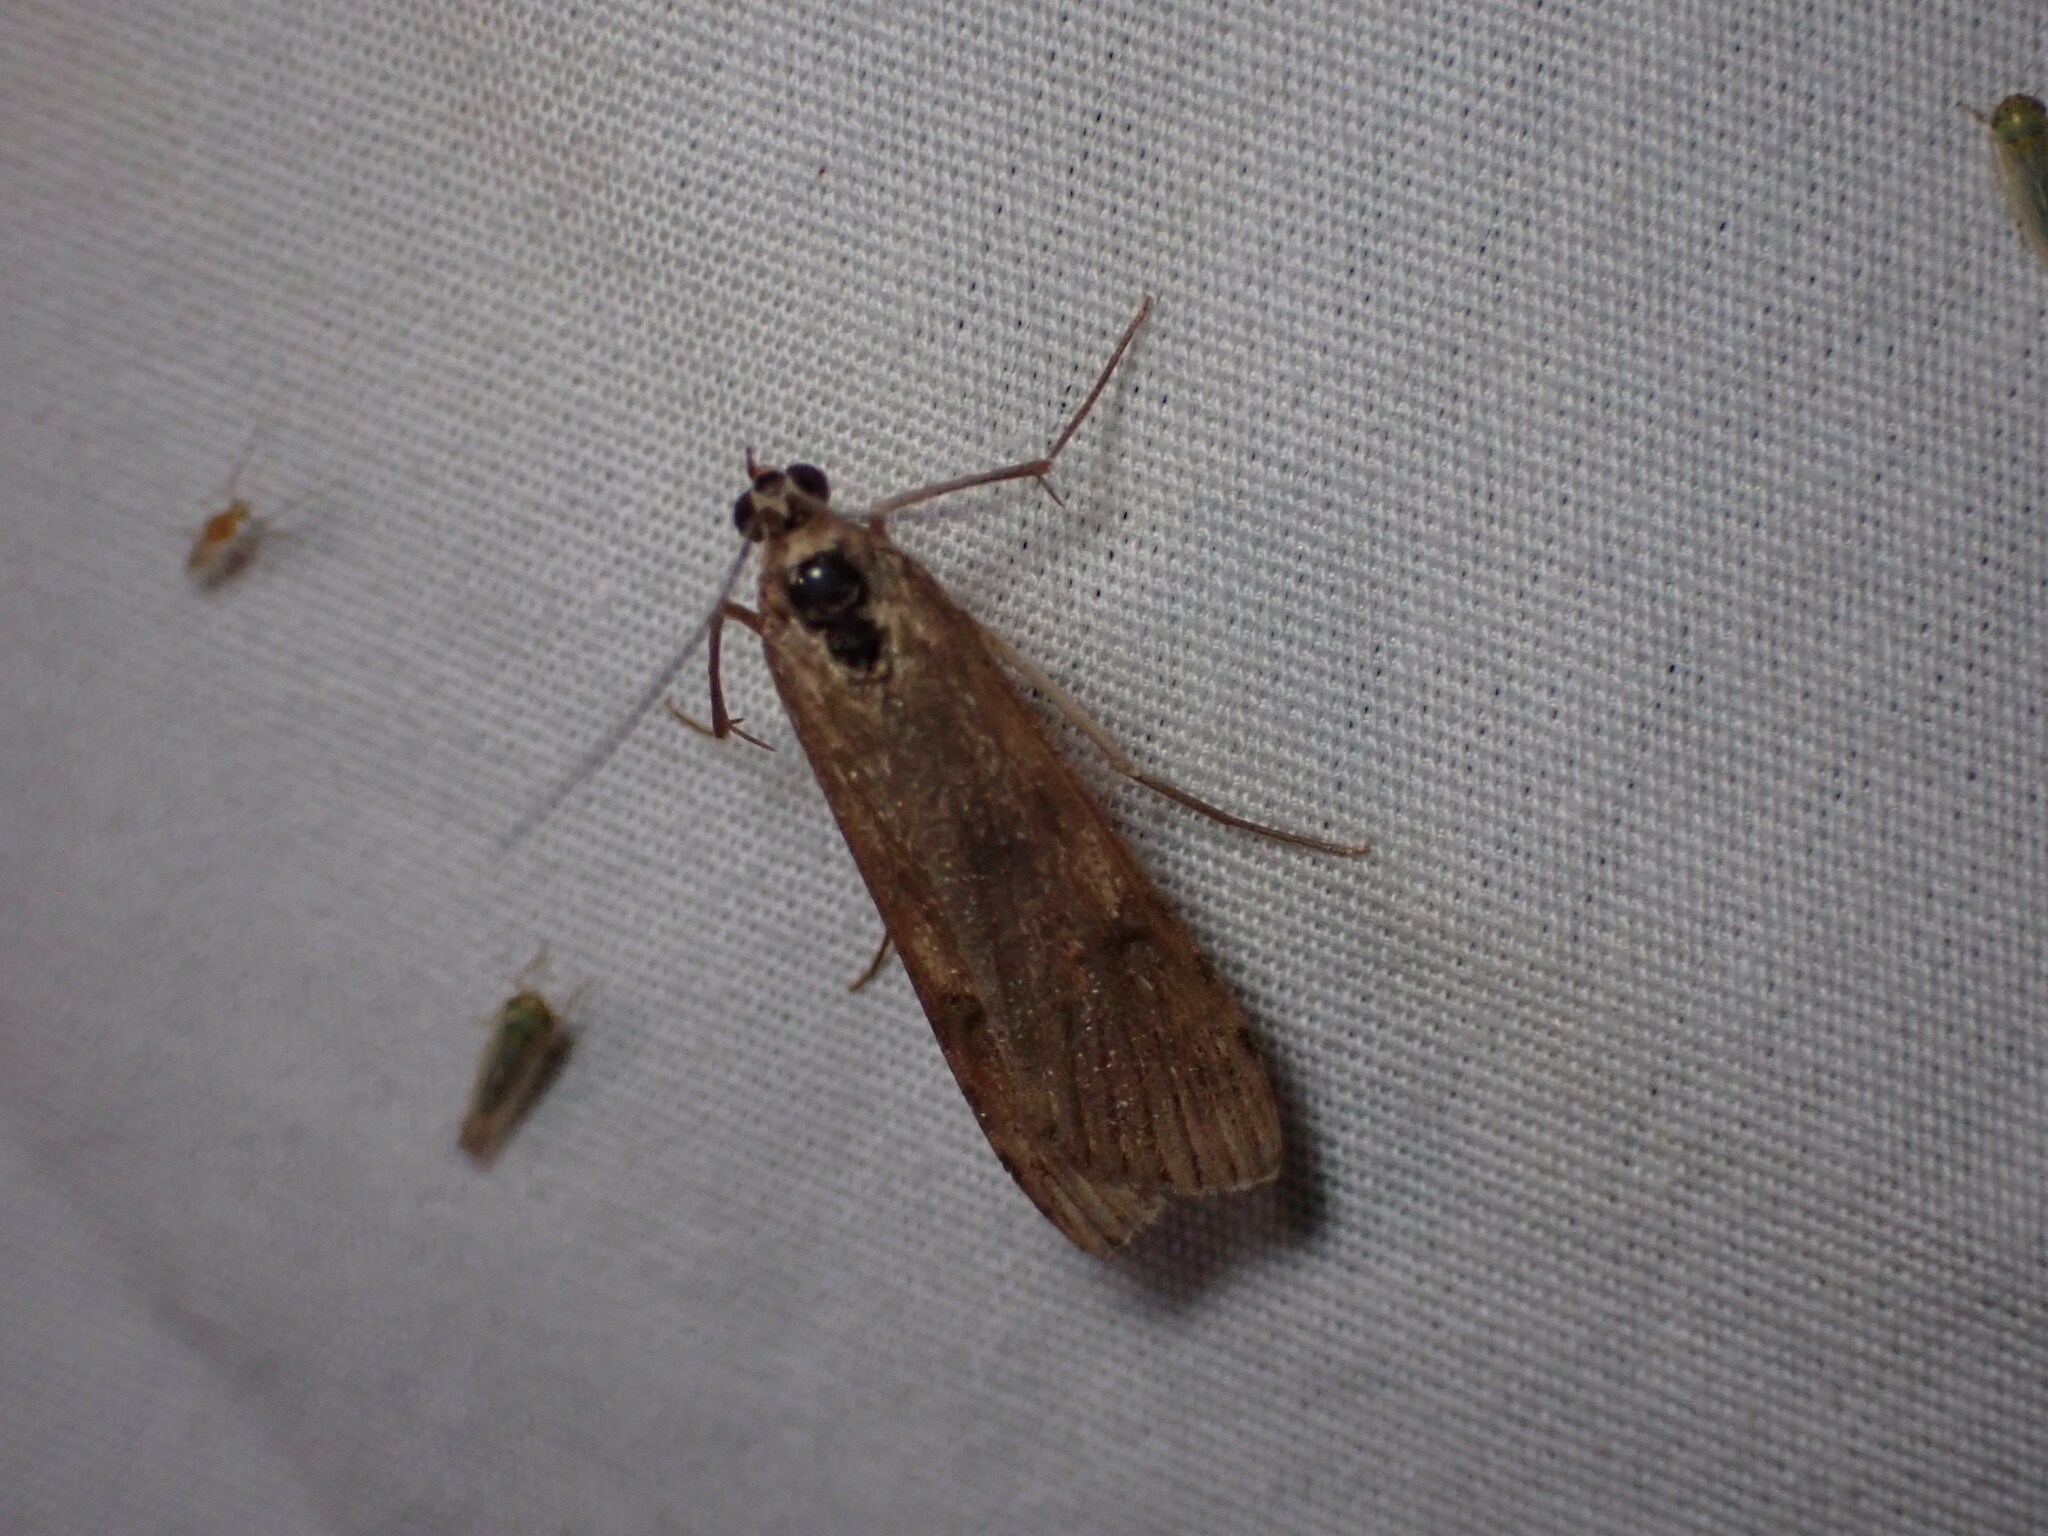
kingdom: Animalia
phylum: Arthropoda
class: Insecta
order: Lepidoptera
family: Crambidae
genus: Nomophila
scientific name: Nomophila nearctica
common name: American rush veneer
